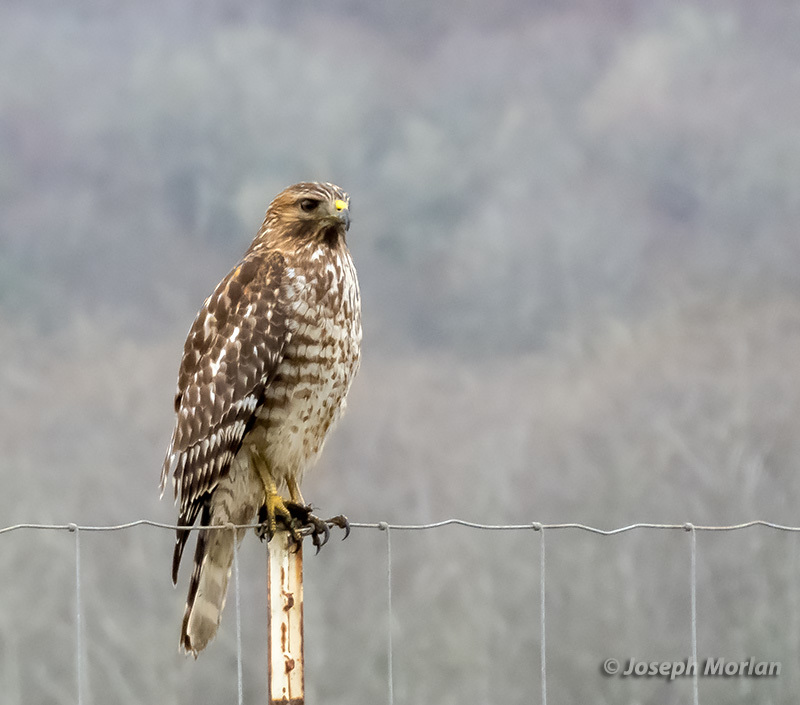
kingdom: Animalia
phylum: Chordata
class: Aves
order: Accipitriformes
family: Accipitridae
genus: Buteo
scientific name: Buteo lineatus
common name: Red-shouldered hawk
